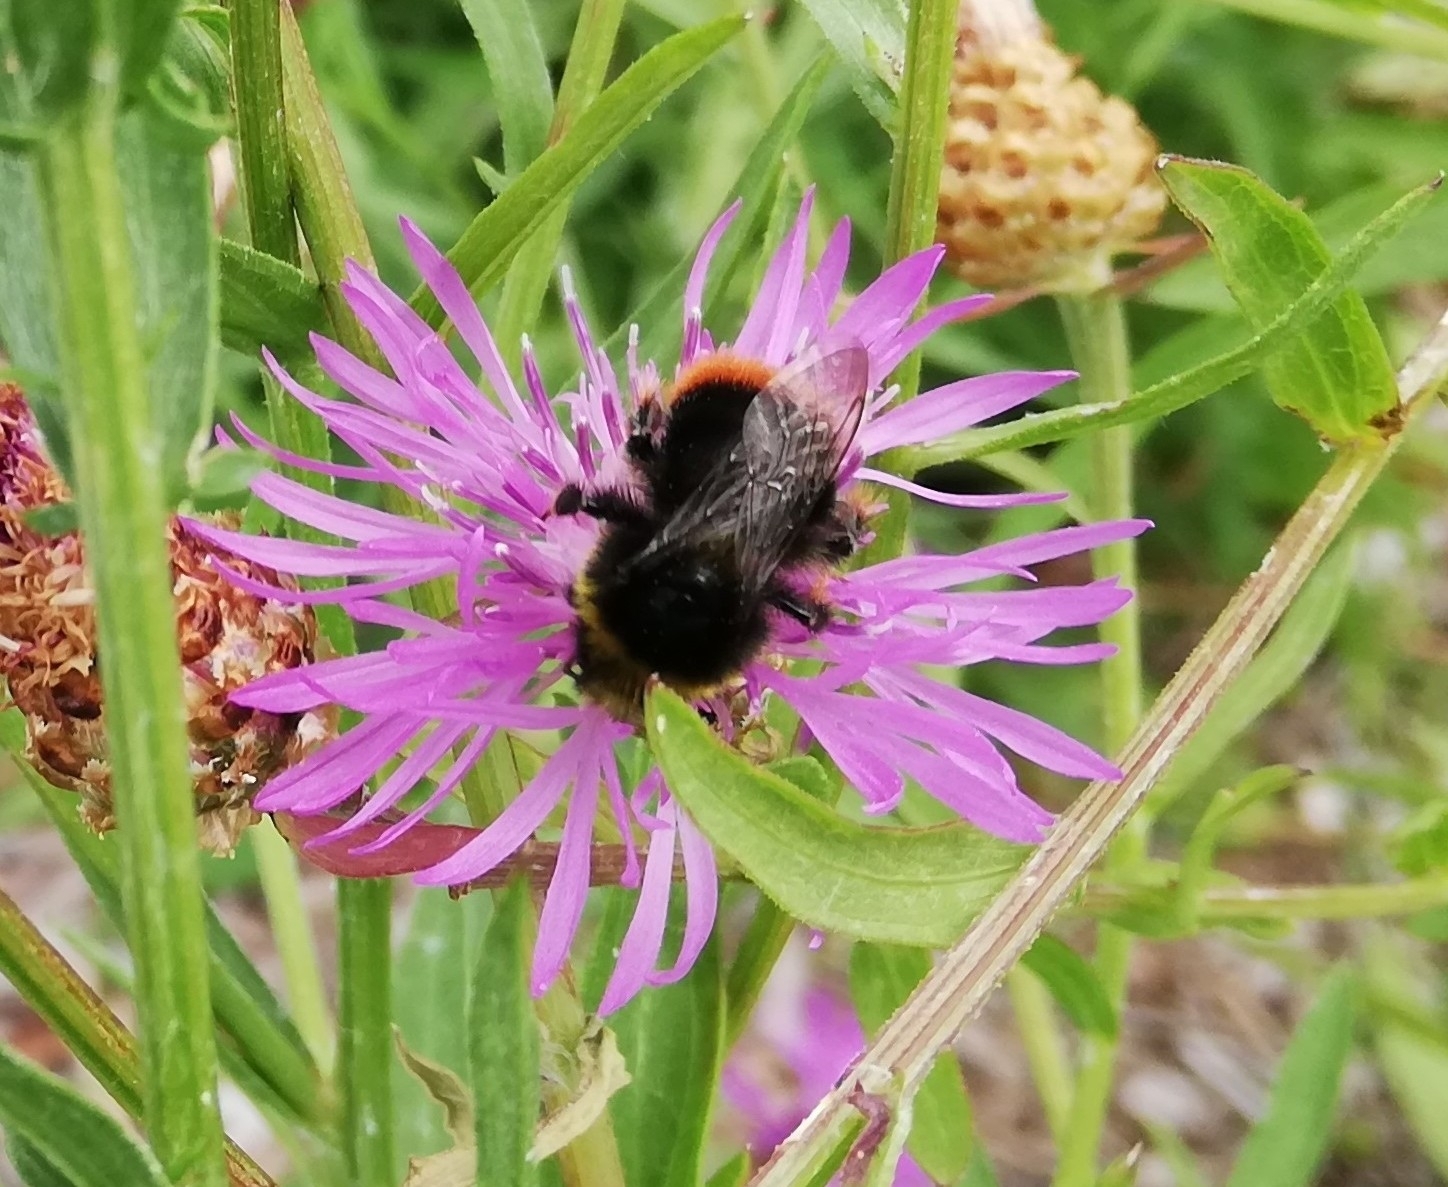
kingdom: Animalia
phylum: Arthropoda
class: Insecta
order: Hymenoptera
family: Apidae
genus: Bombus
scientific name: Bombus lapidarius
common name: Large red-tailed humble-bee
